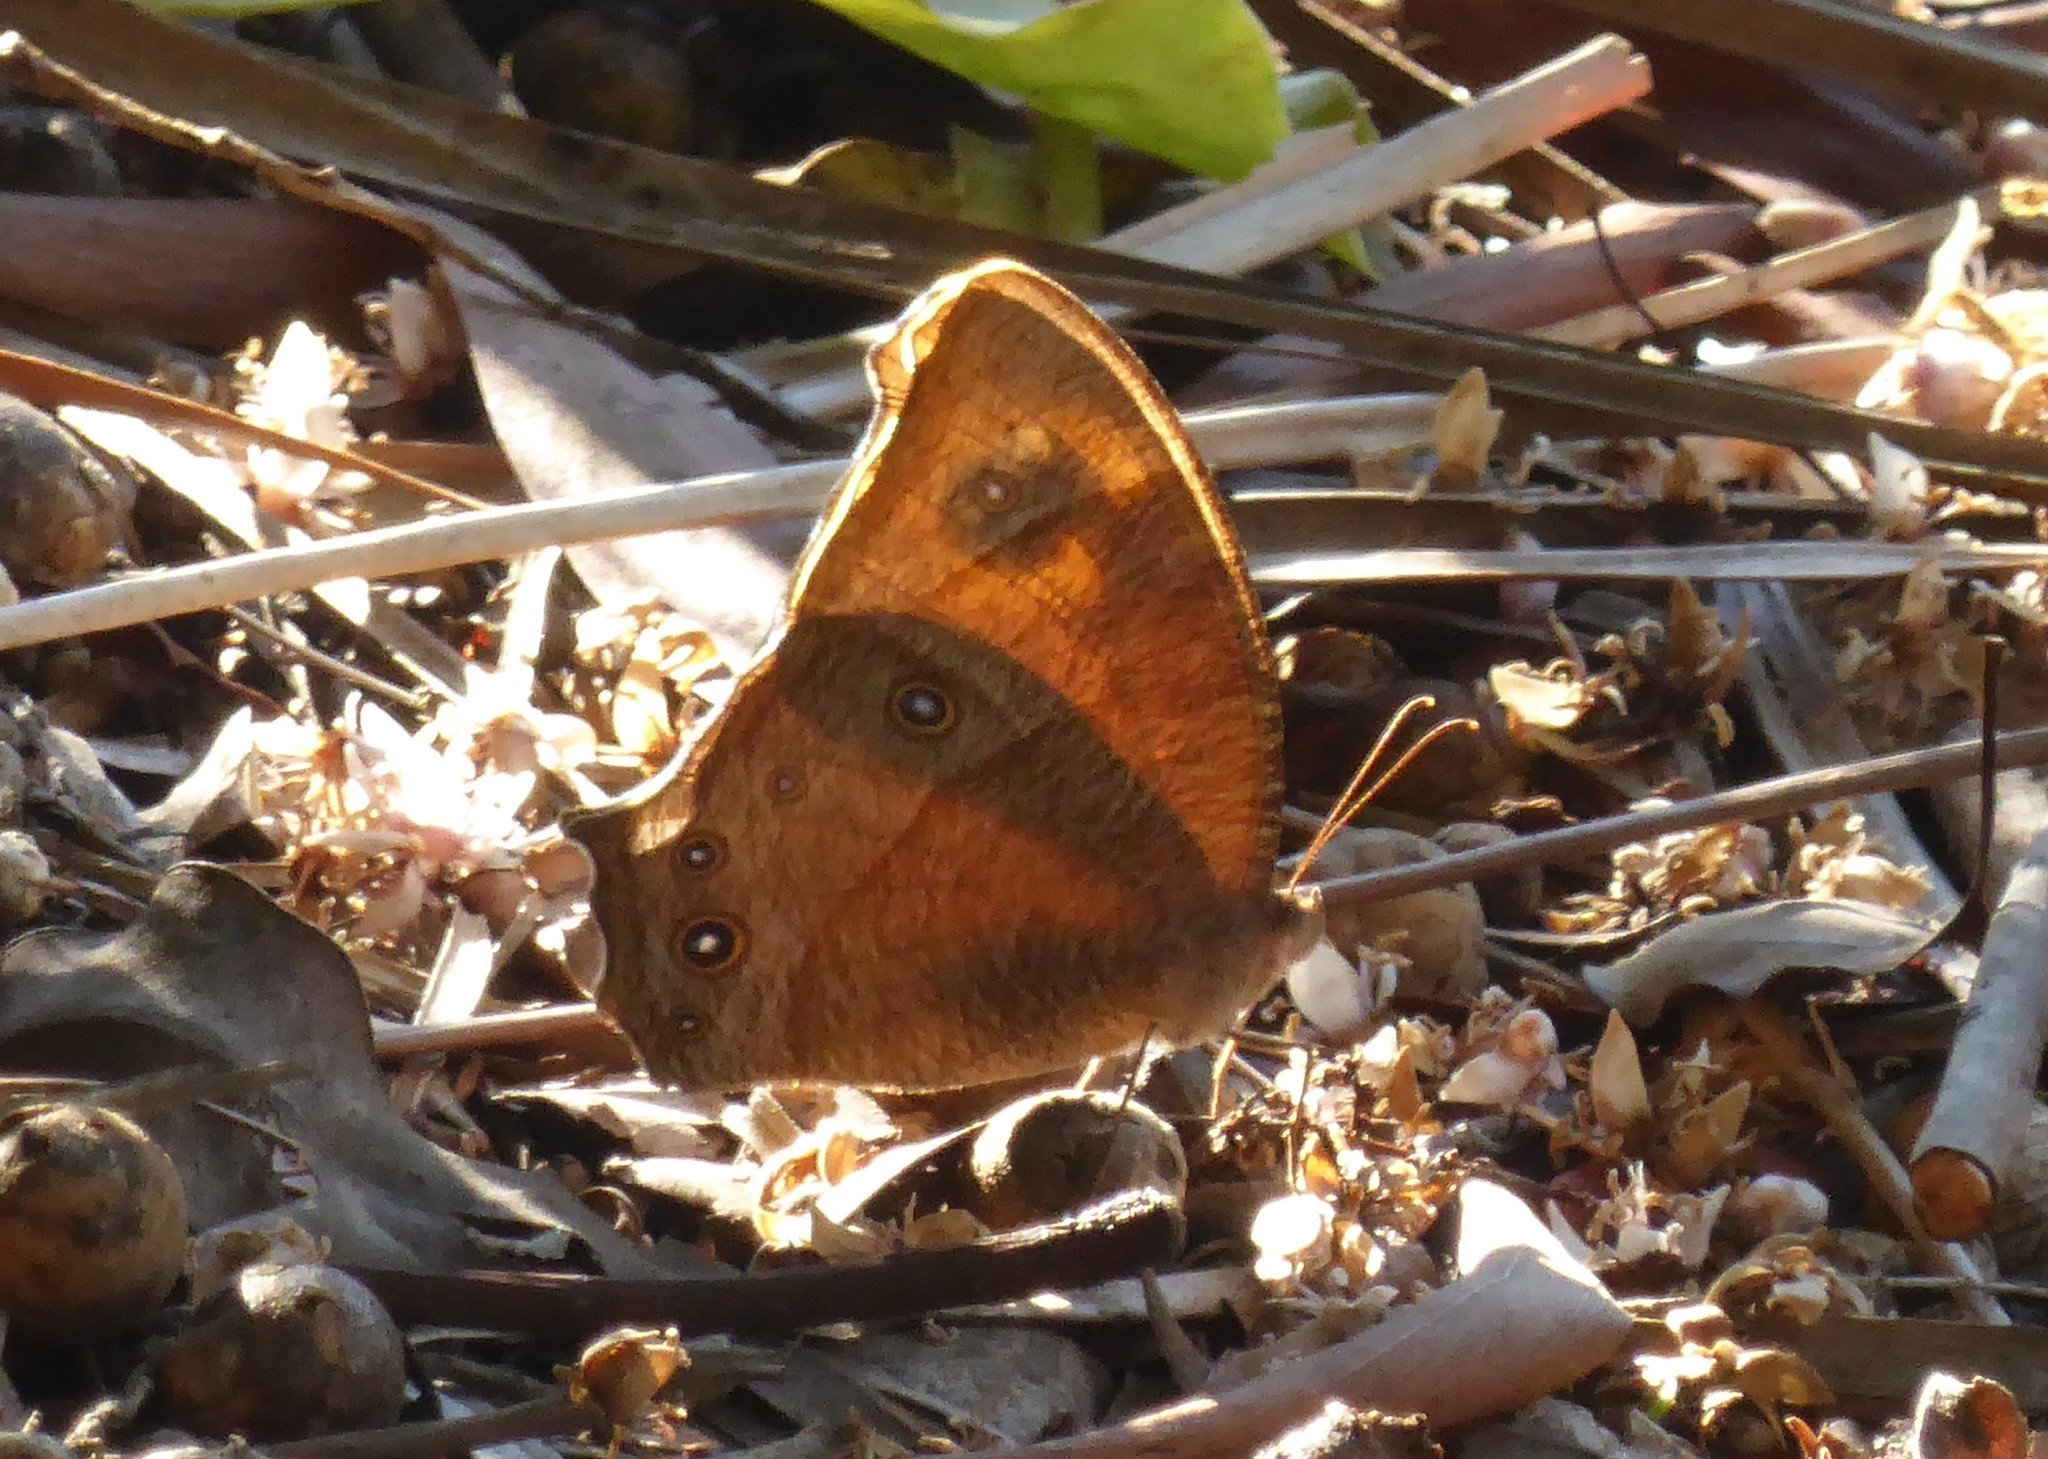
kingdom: Animalia
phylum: Arthropoda
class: Insecta
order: Lepidoptera
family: Nymphalidae
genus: Melanitis
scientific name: Melanitis leda
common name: Twilight brown
